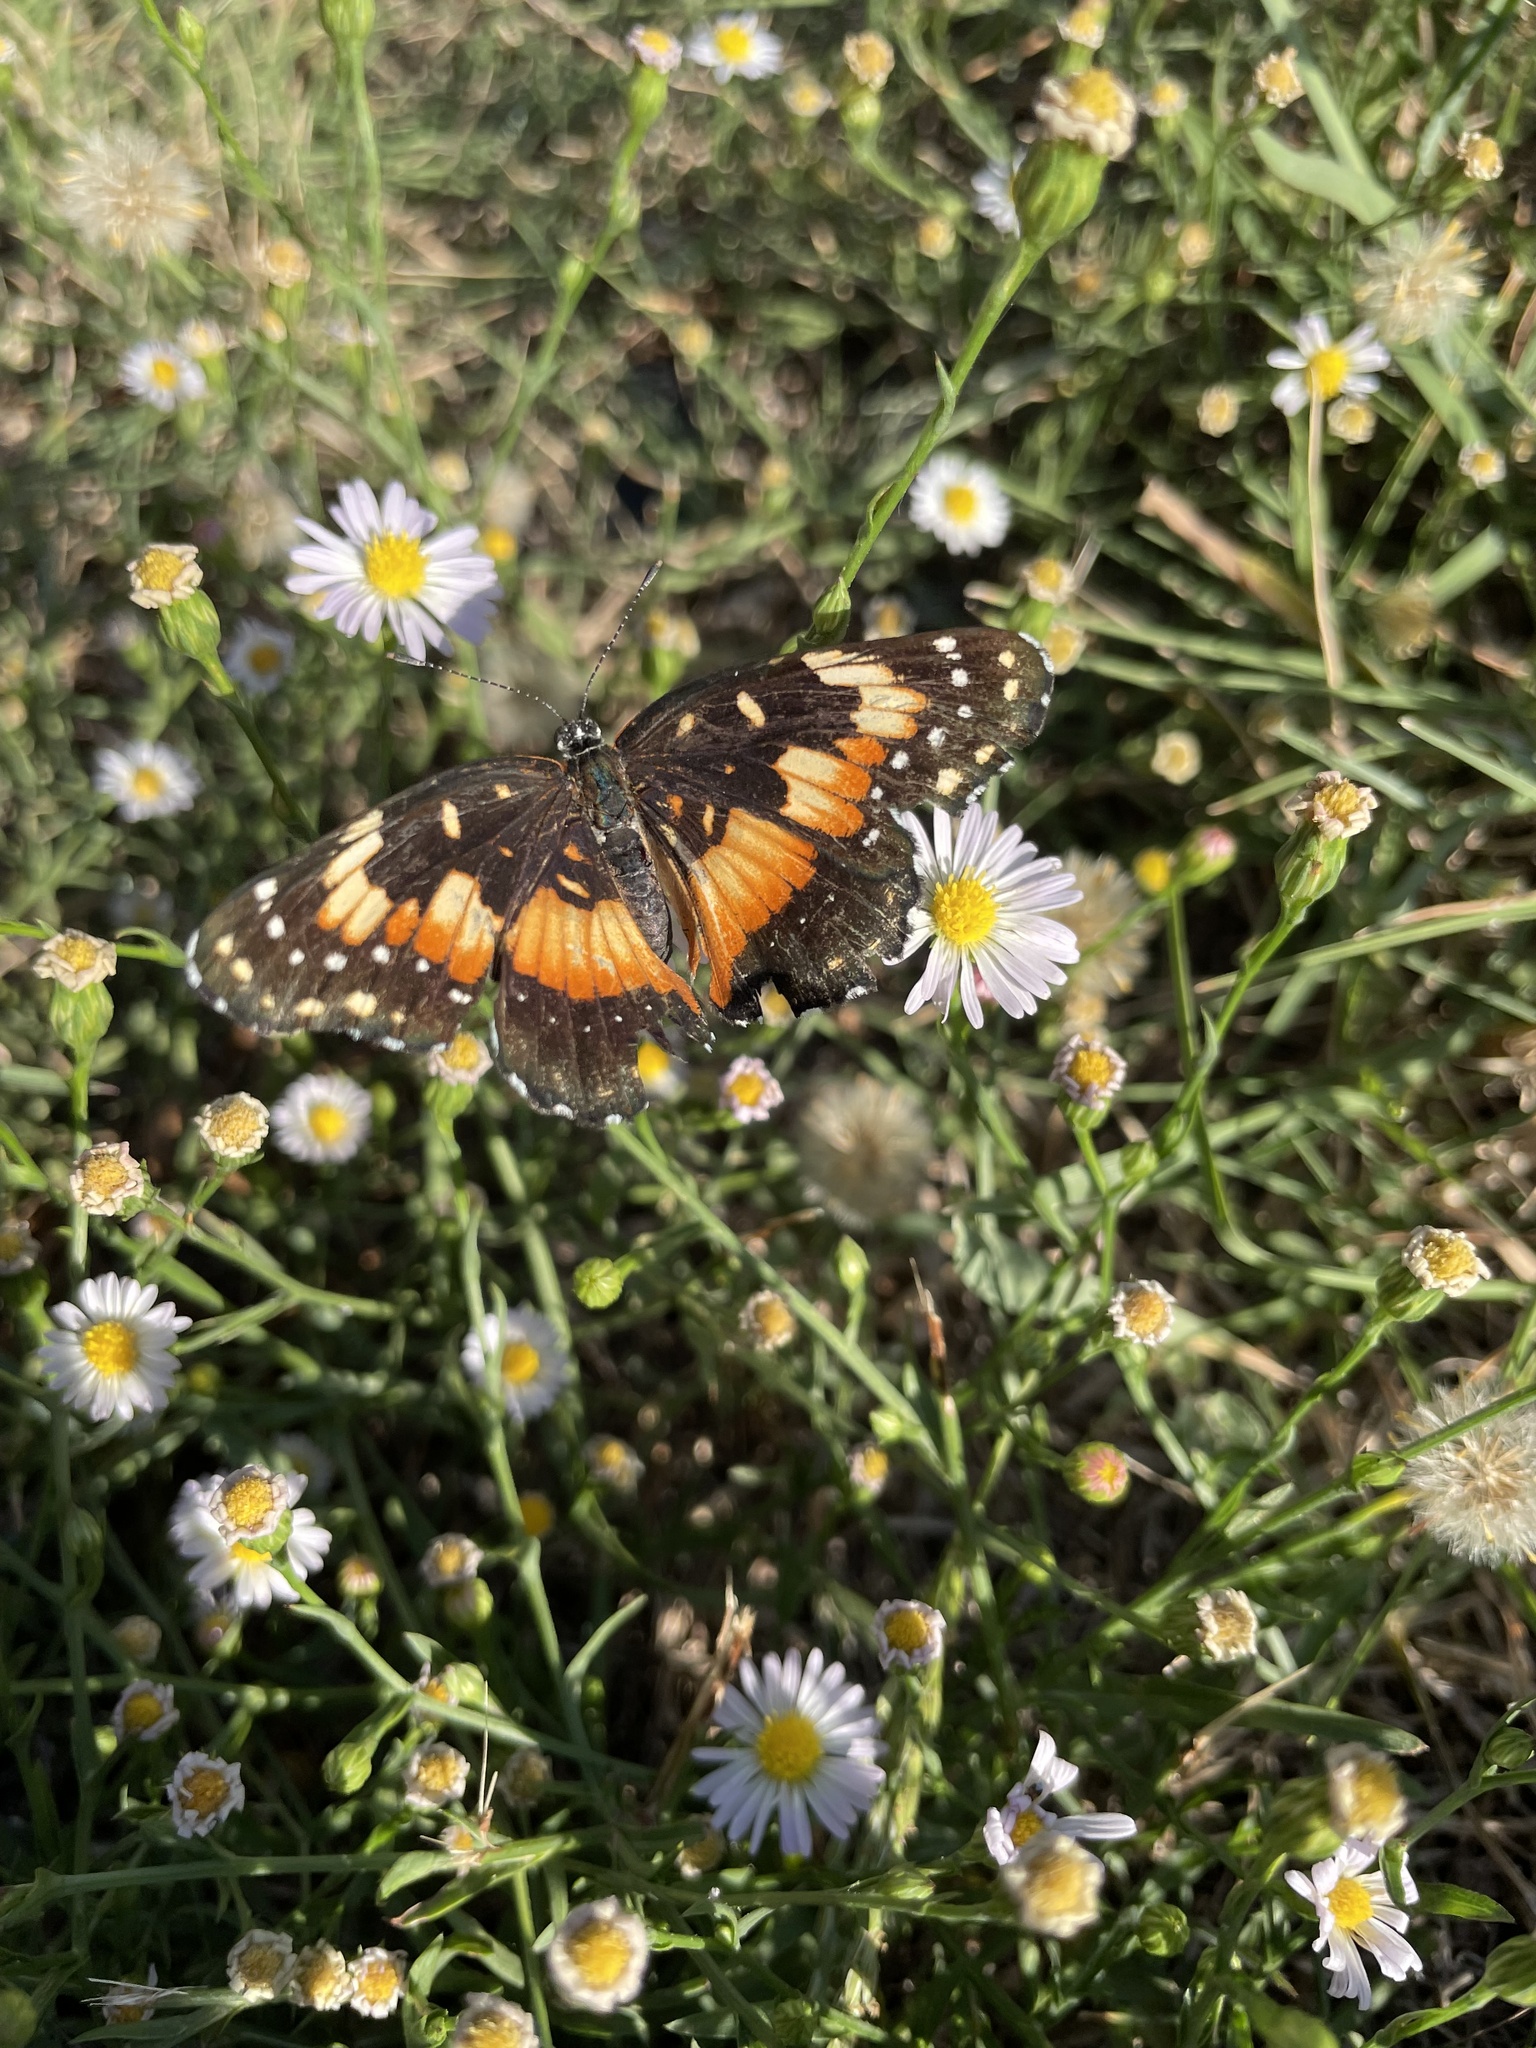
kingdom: Animalia
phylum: Arthropoda
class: Insecta
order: Lepidoptera
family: Nymphalidae
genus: Chlosyne
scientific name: Chlosyne lacinia
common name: Bordered patch
